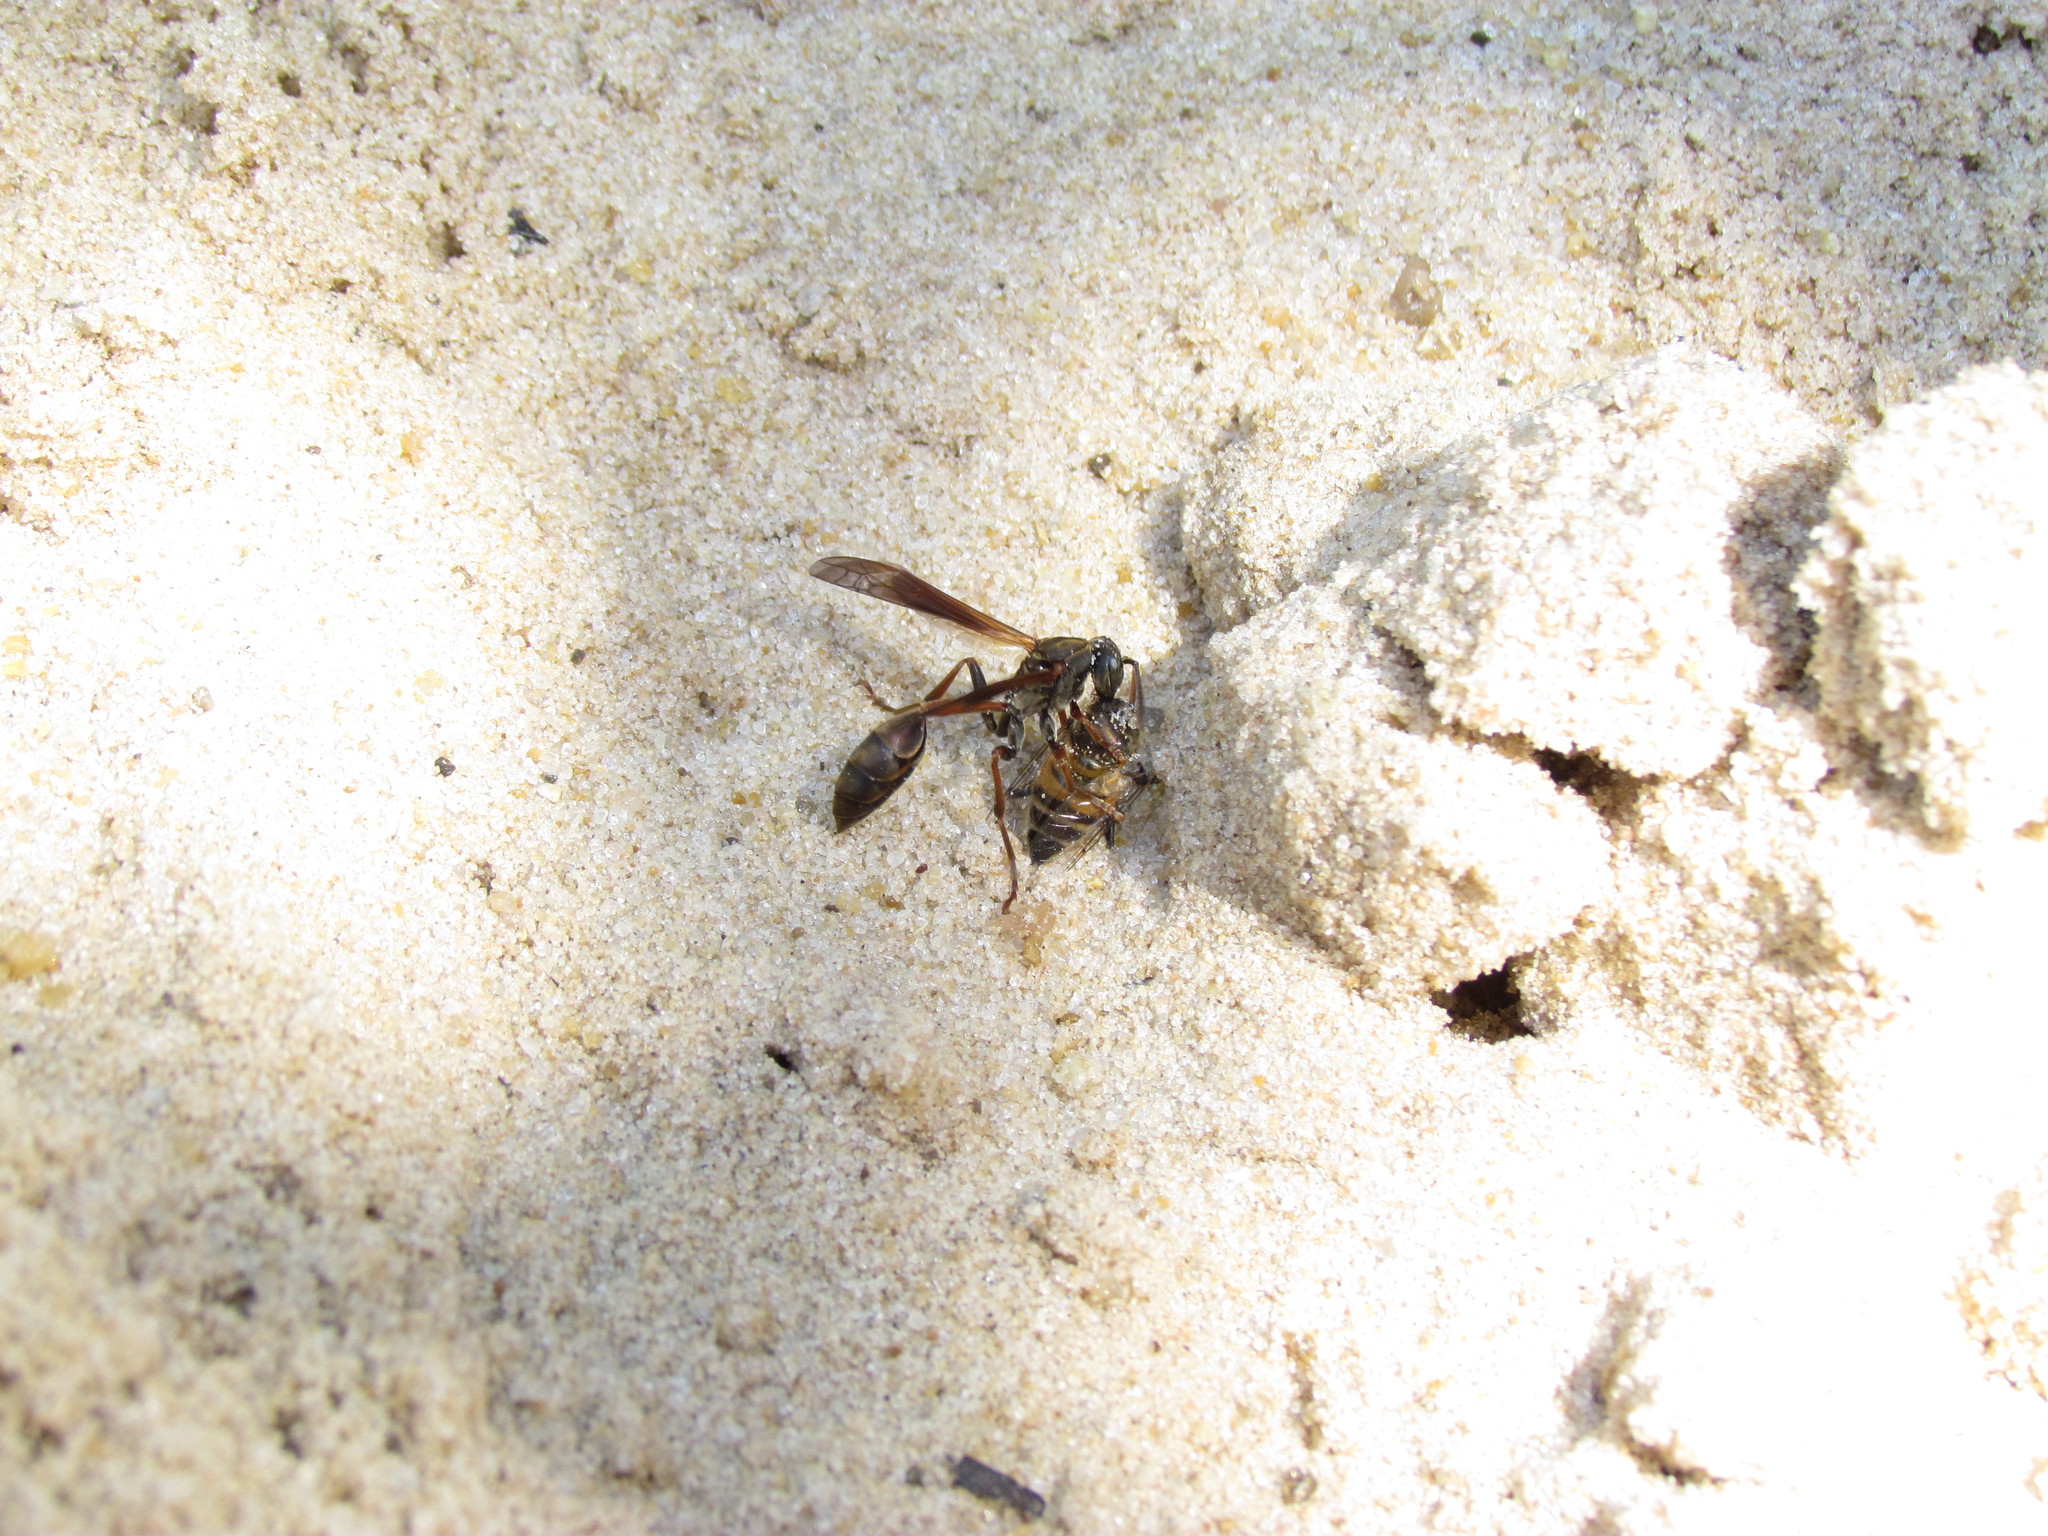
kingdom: Animalia
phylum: Arthropoda
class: Insecta
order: Hymenoptera
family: Vespidae
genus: Mischocyttarus
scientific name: Mischocyttarus drewseni
